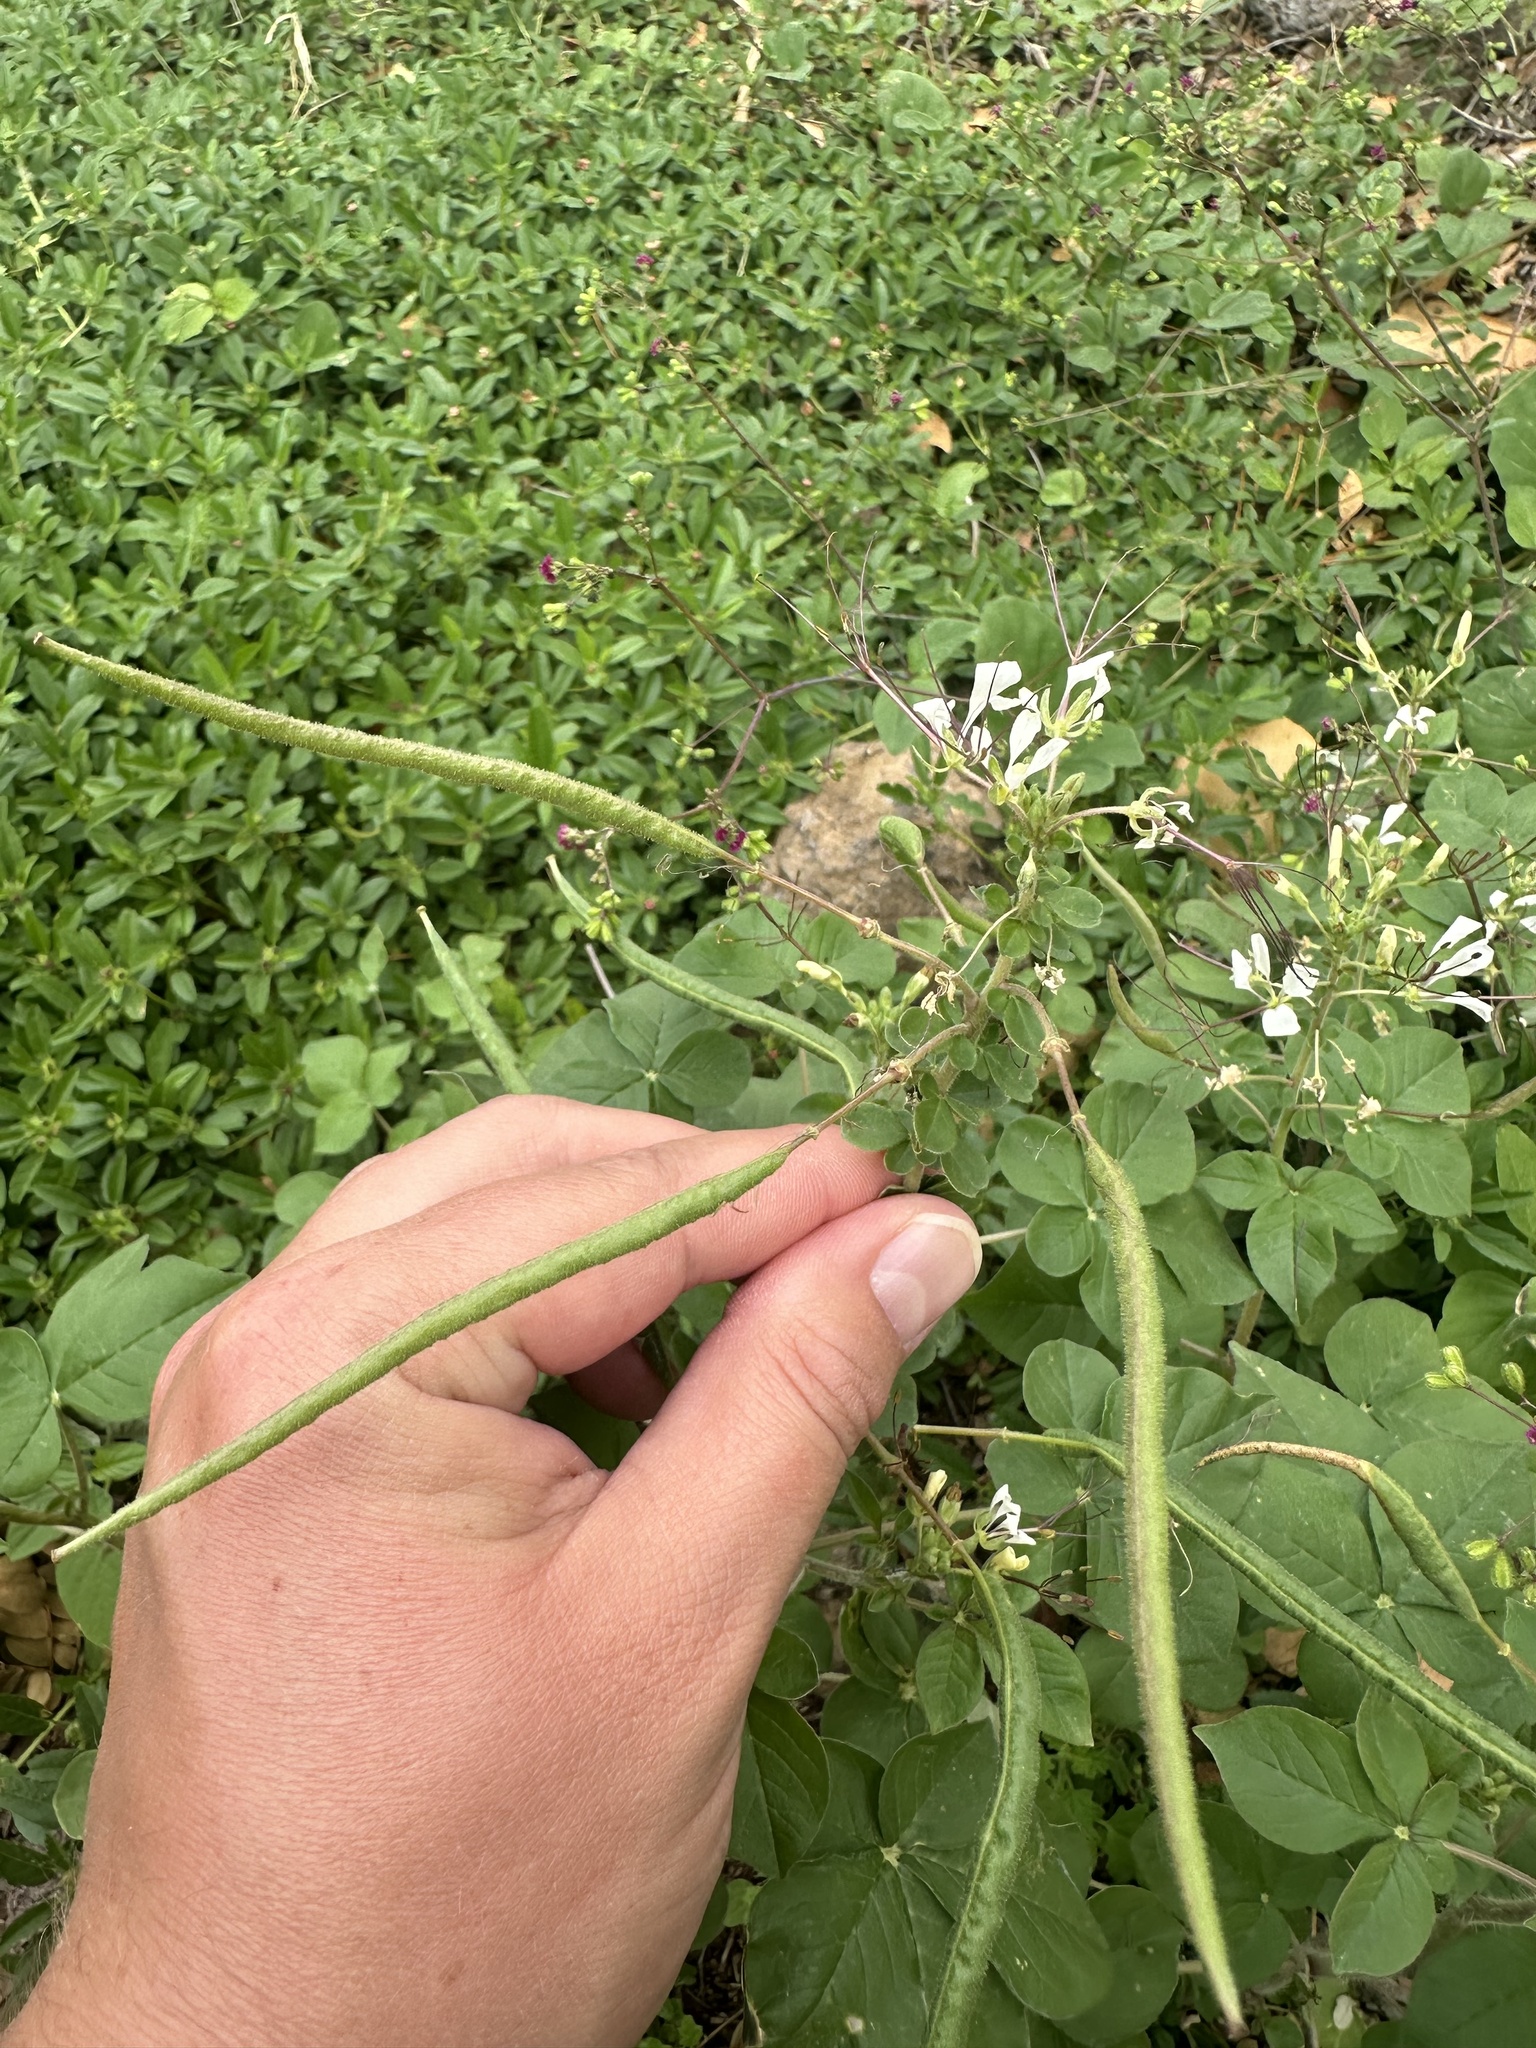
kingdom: Plantae
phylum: Tracheophyta
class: Magnoliopsida
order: Brassicales
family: Cleomaceae
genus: Gynandropsis
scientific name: Gynandropsis gynandra
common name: Spiderwisp
